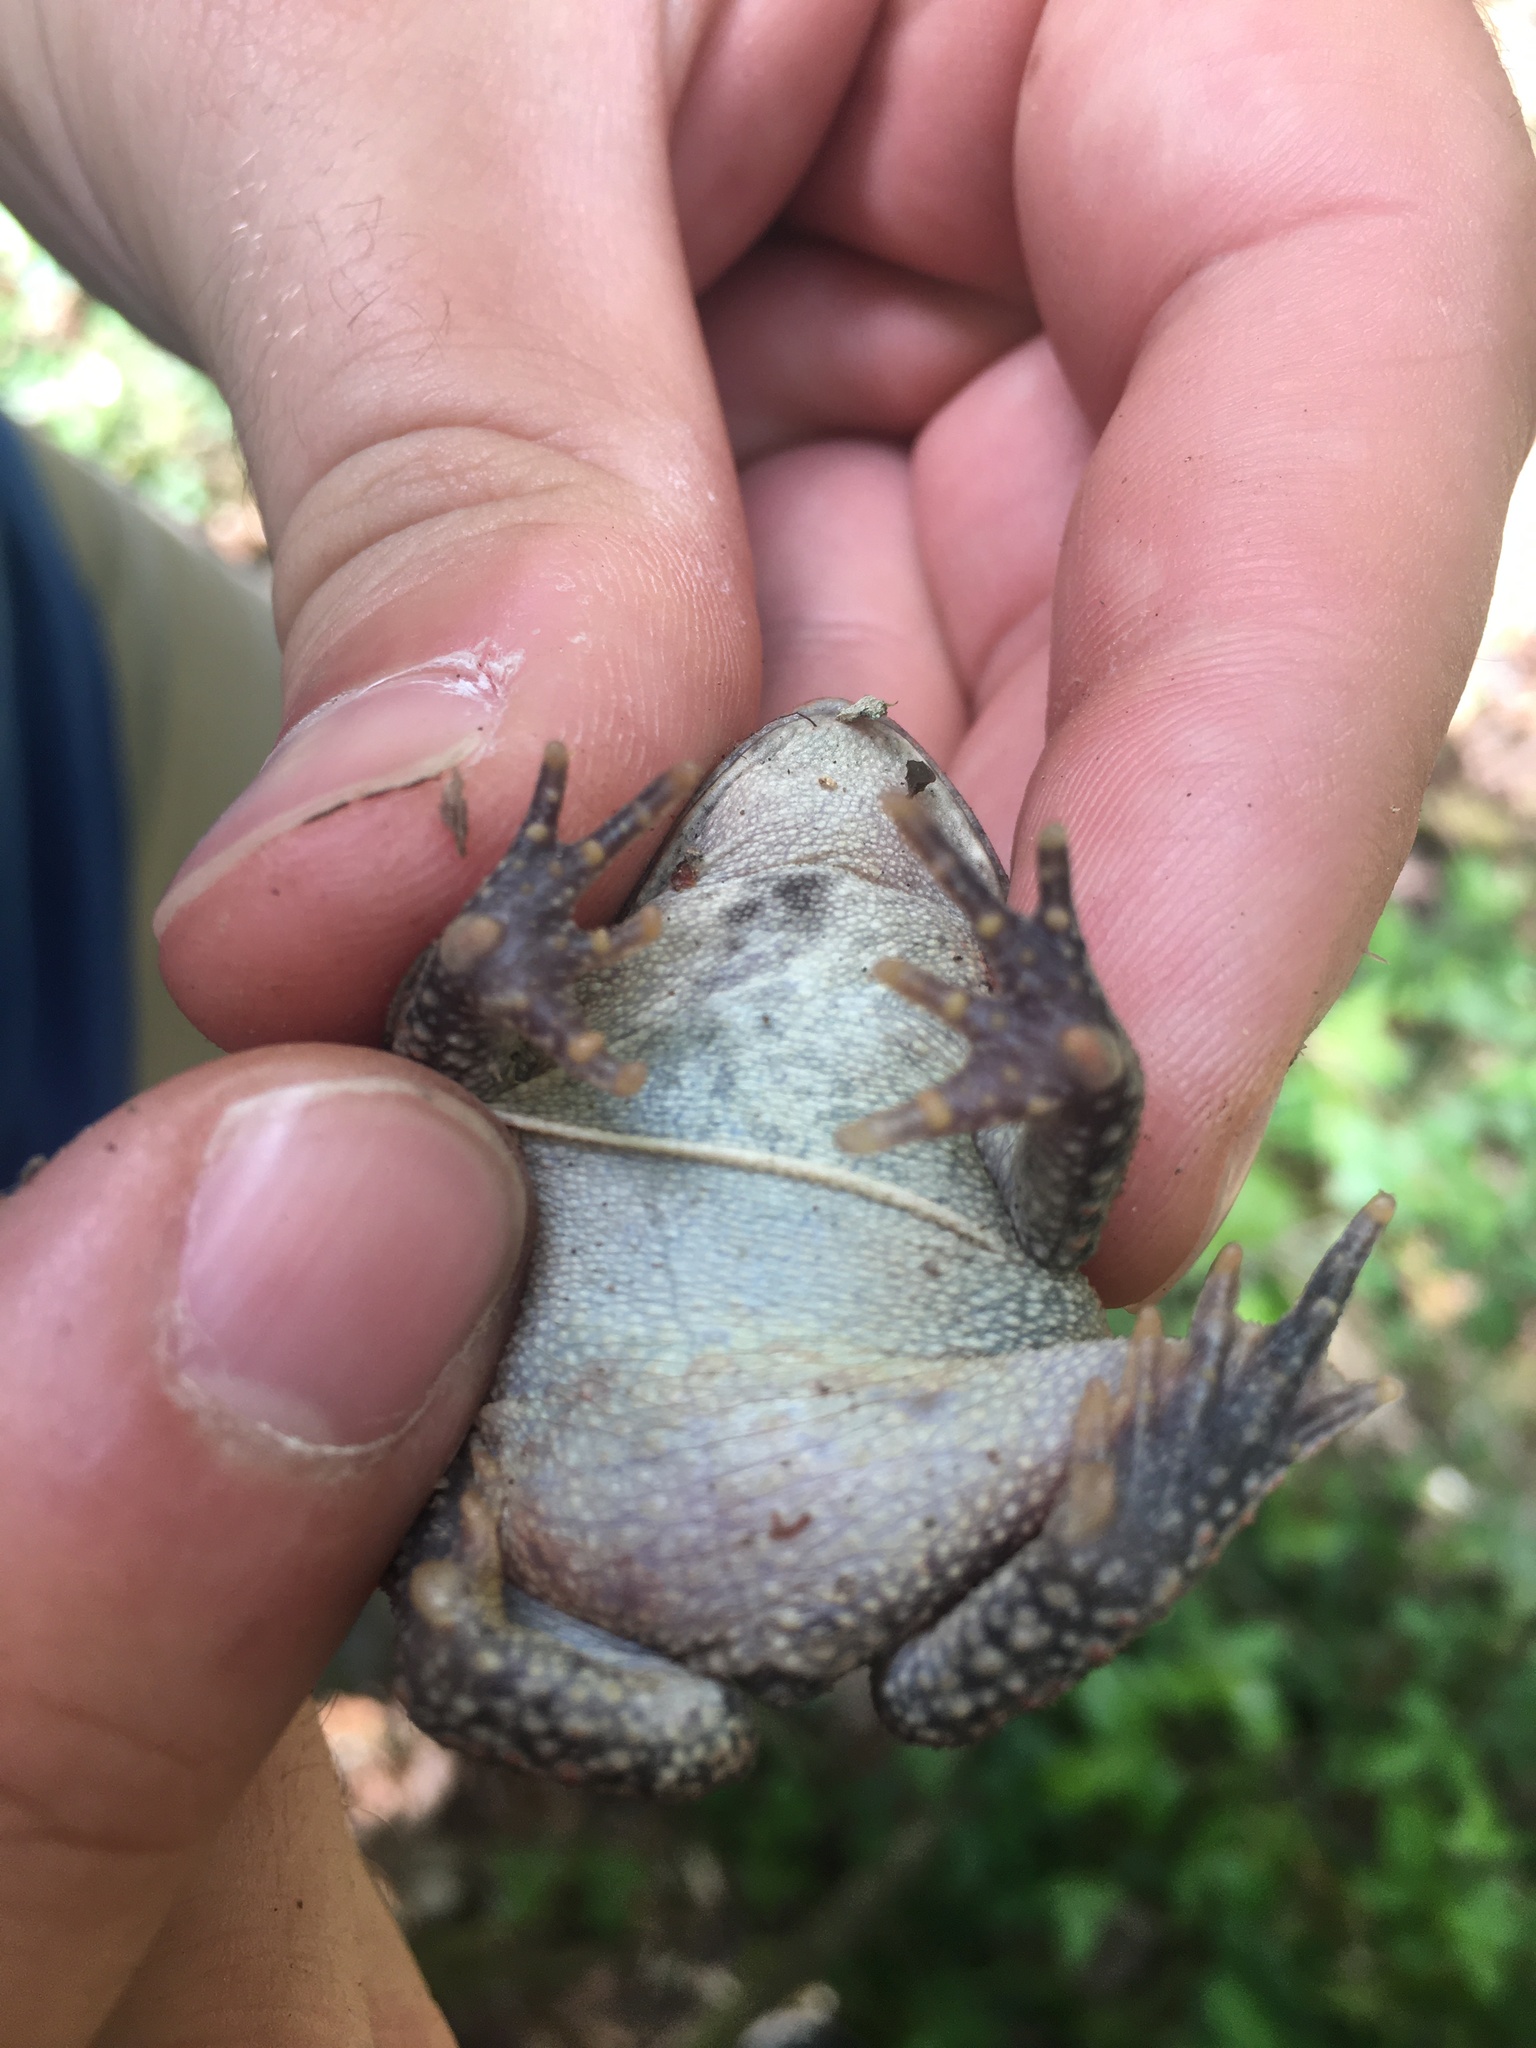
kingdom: Animalia
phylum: Chordata
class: Amphibia
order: Anura
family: Bufonidae
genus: Anaxyrus
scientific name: Anaxyrus fowleri
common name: Fowler's toad
